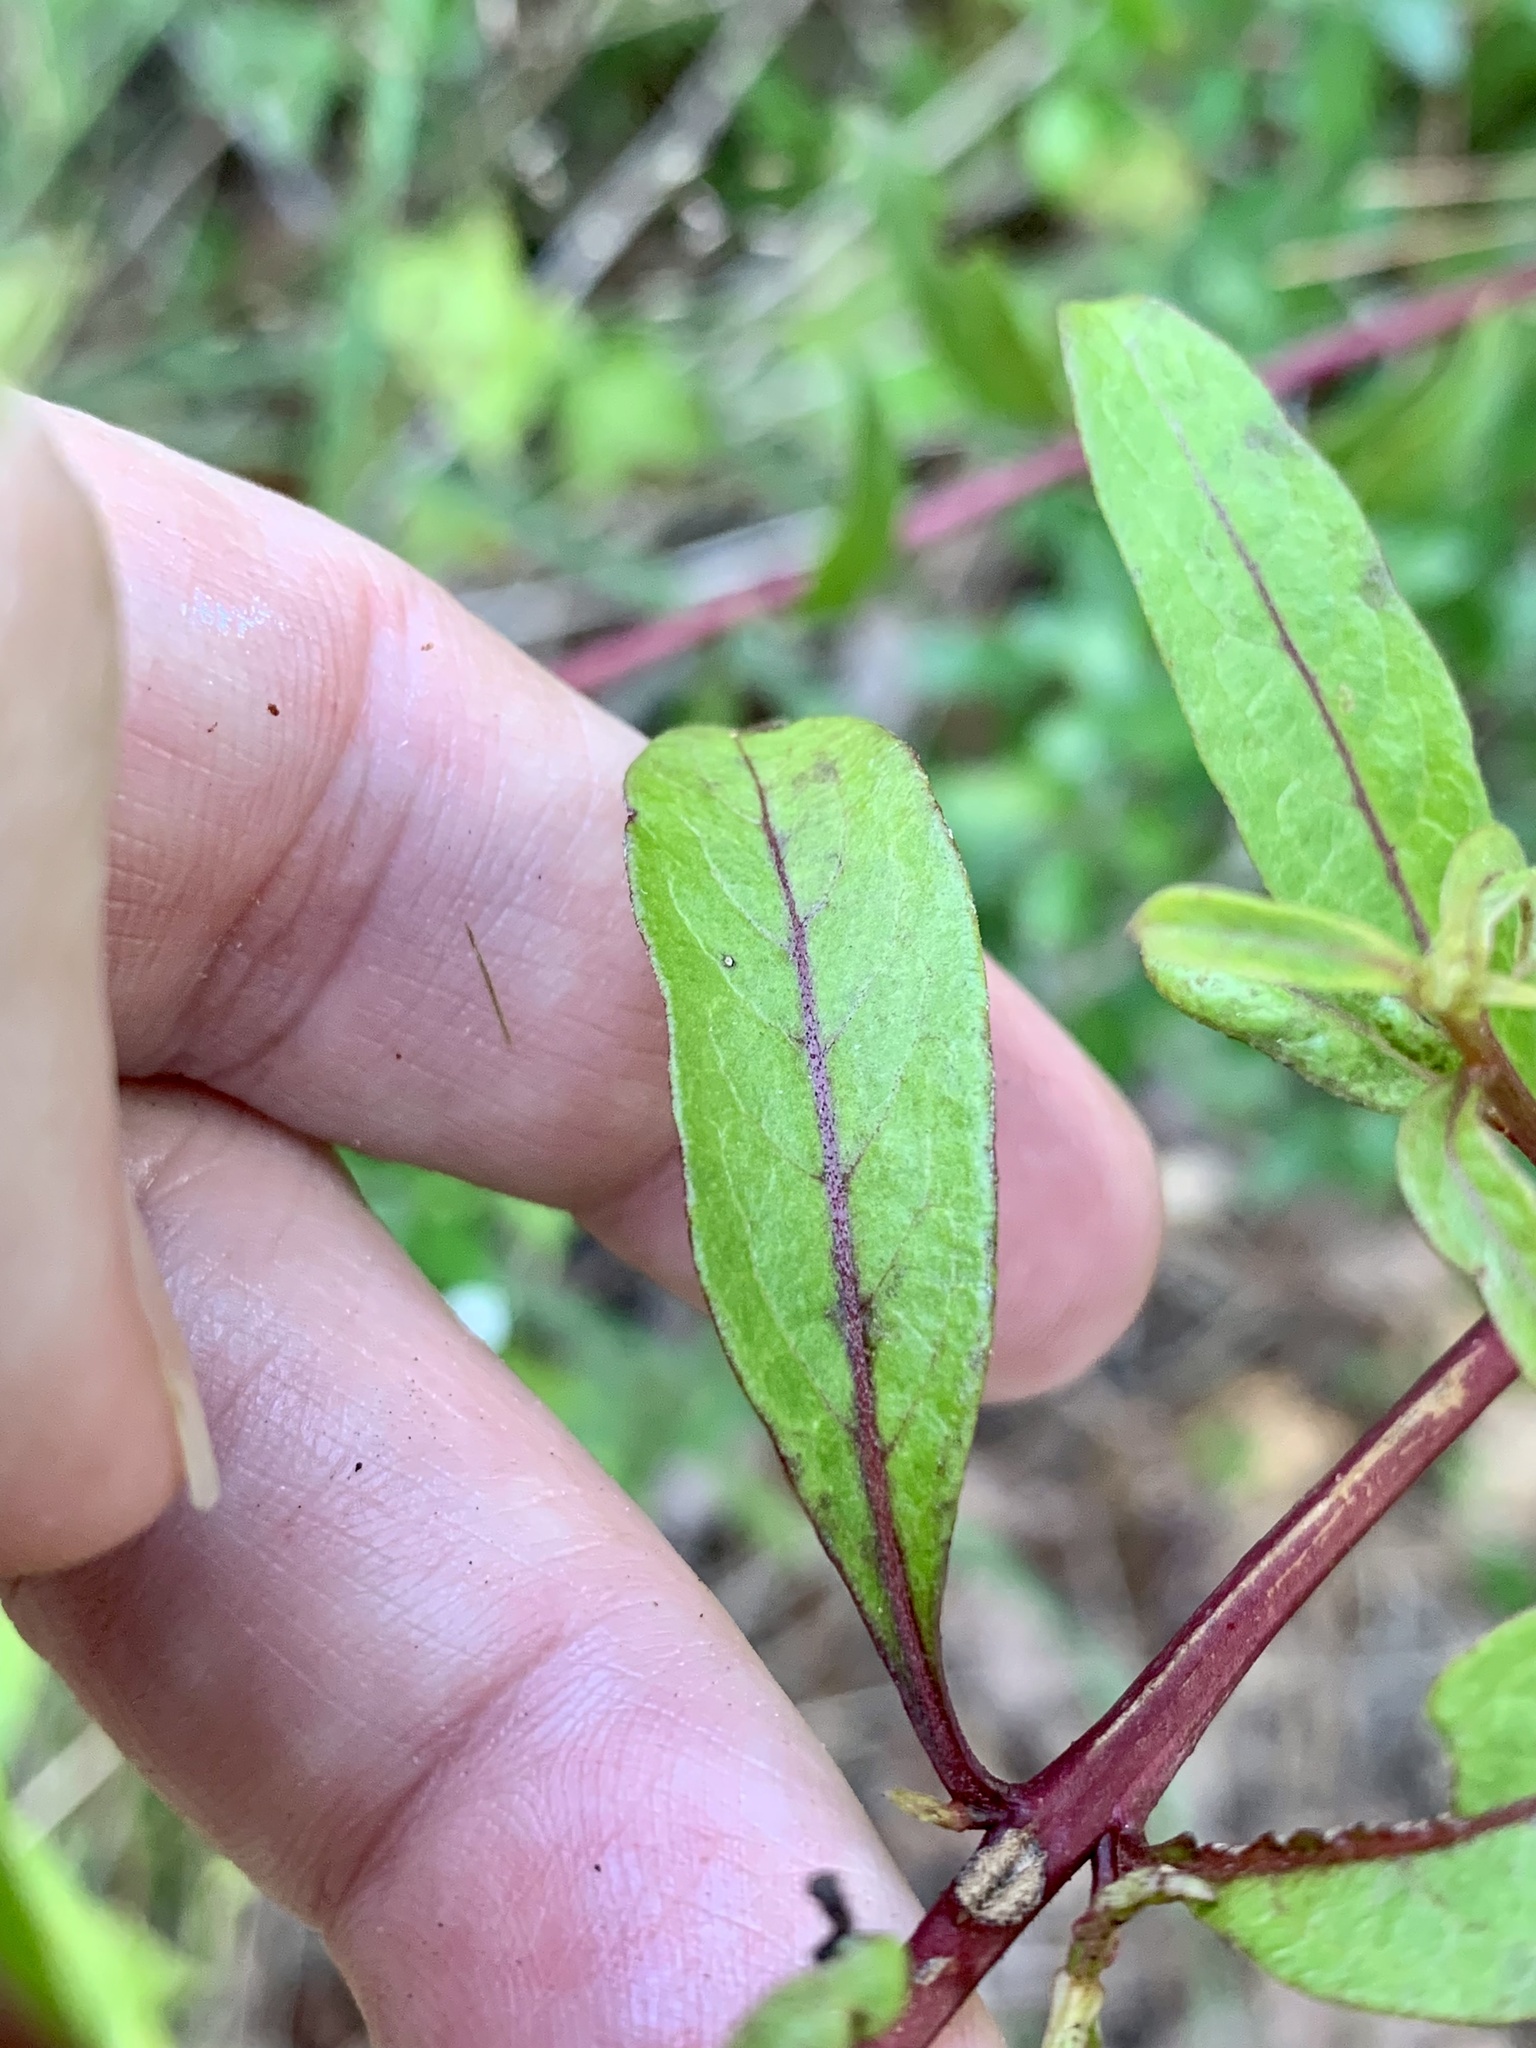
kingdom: Plantae
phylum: Tracheophyta
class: Magnoliopsida
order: Lamiales
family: Orobanchaceae
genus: Aureolaria
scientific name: Aureolaria flava
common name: Smooth false foxglove
